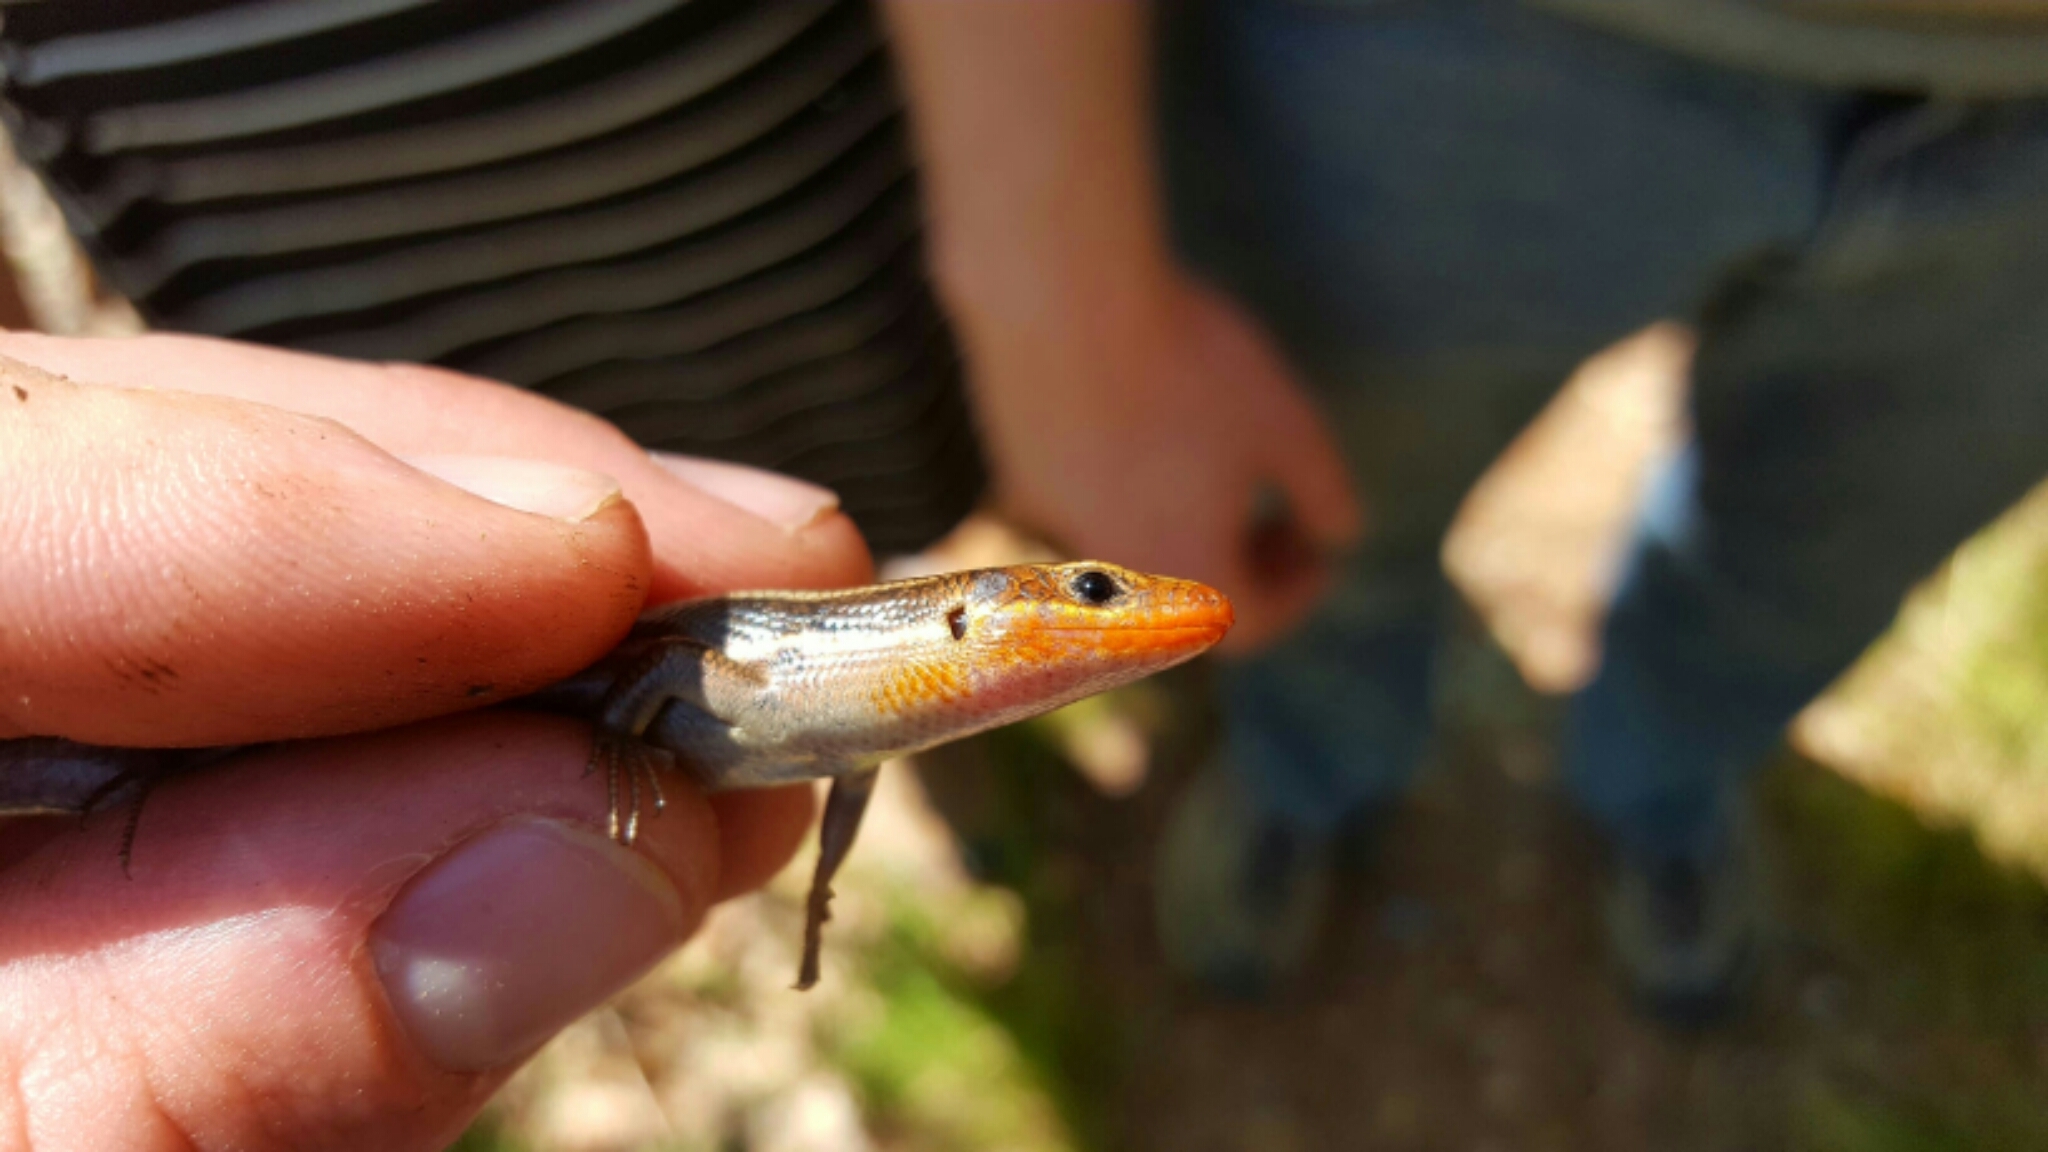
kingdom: Animalia
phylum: Chordata
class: Squamata
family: Scincidae
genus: Plestiodon
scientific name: Plestiodon fasciatus
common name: Five-lined skink
